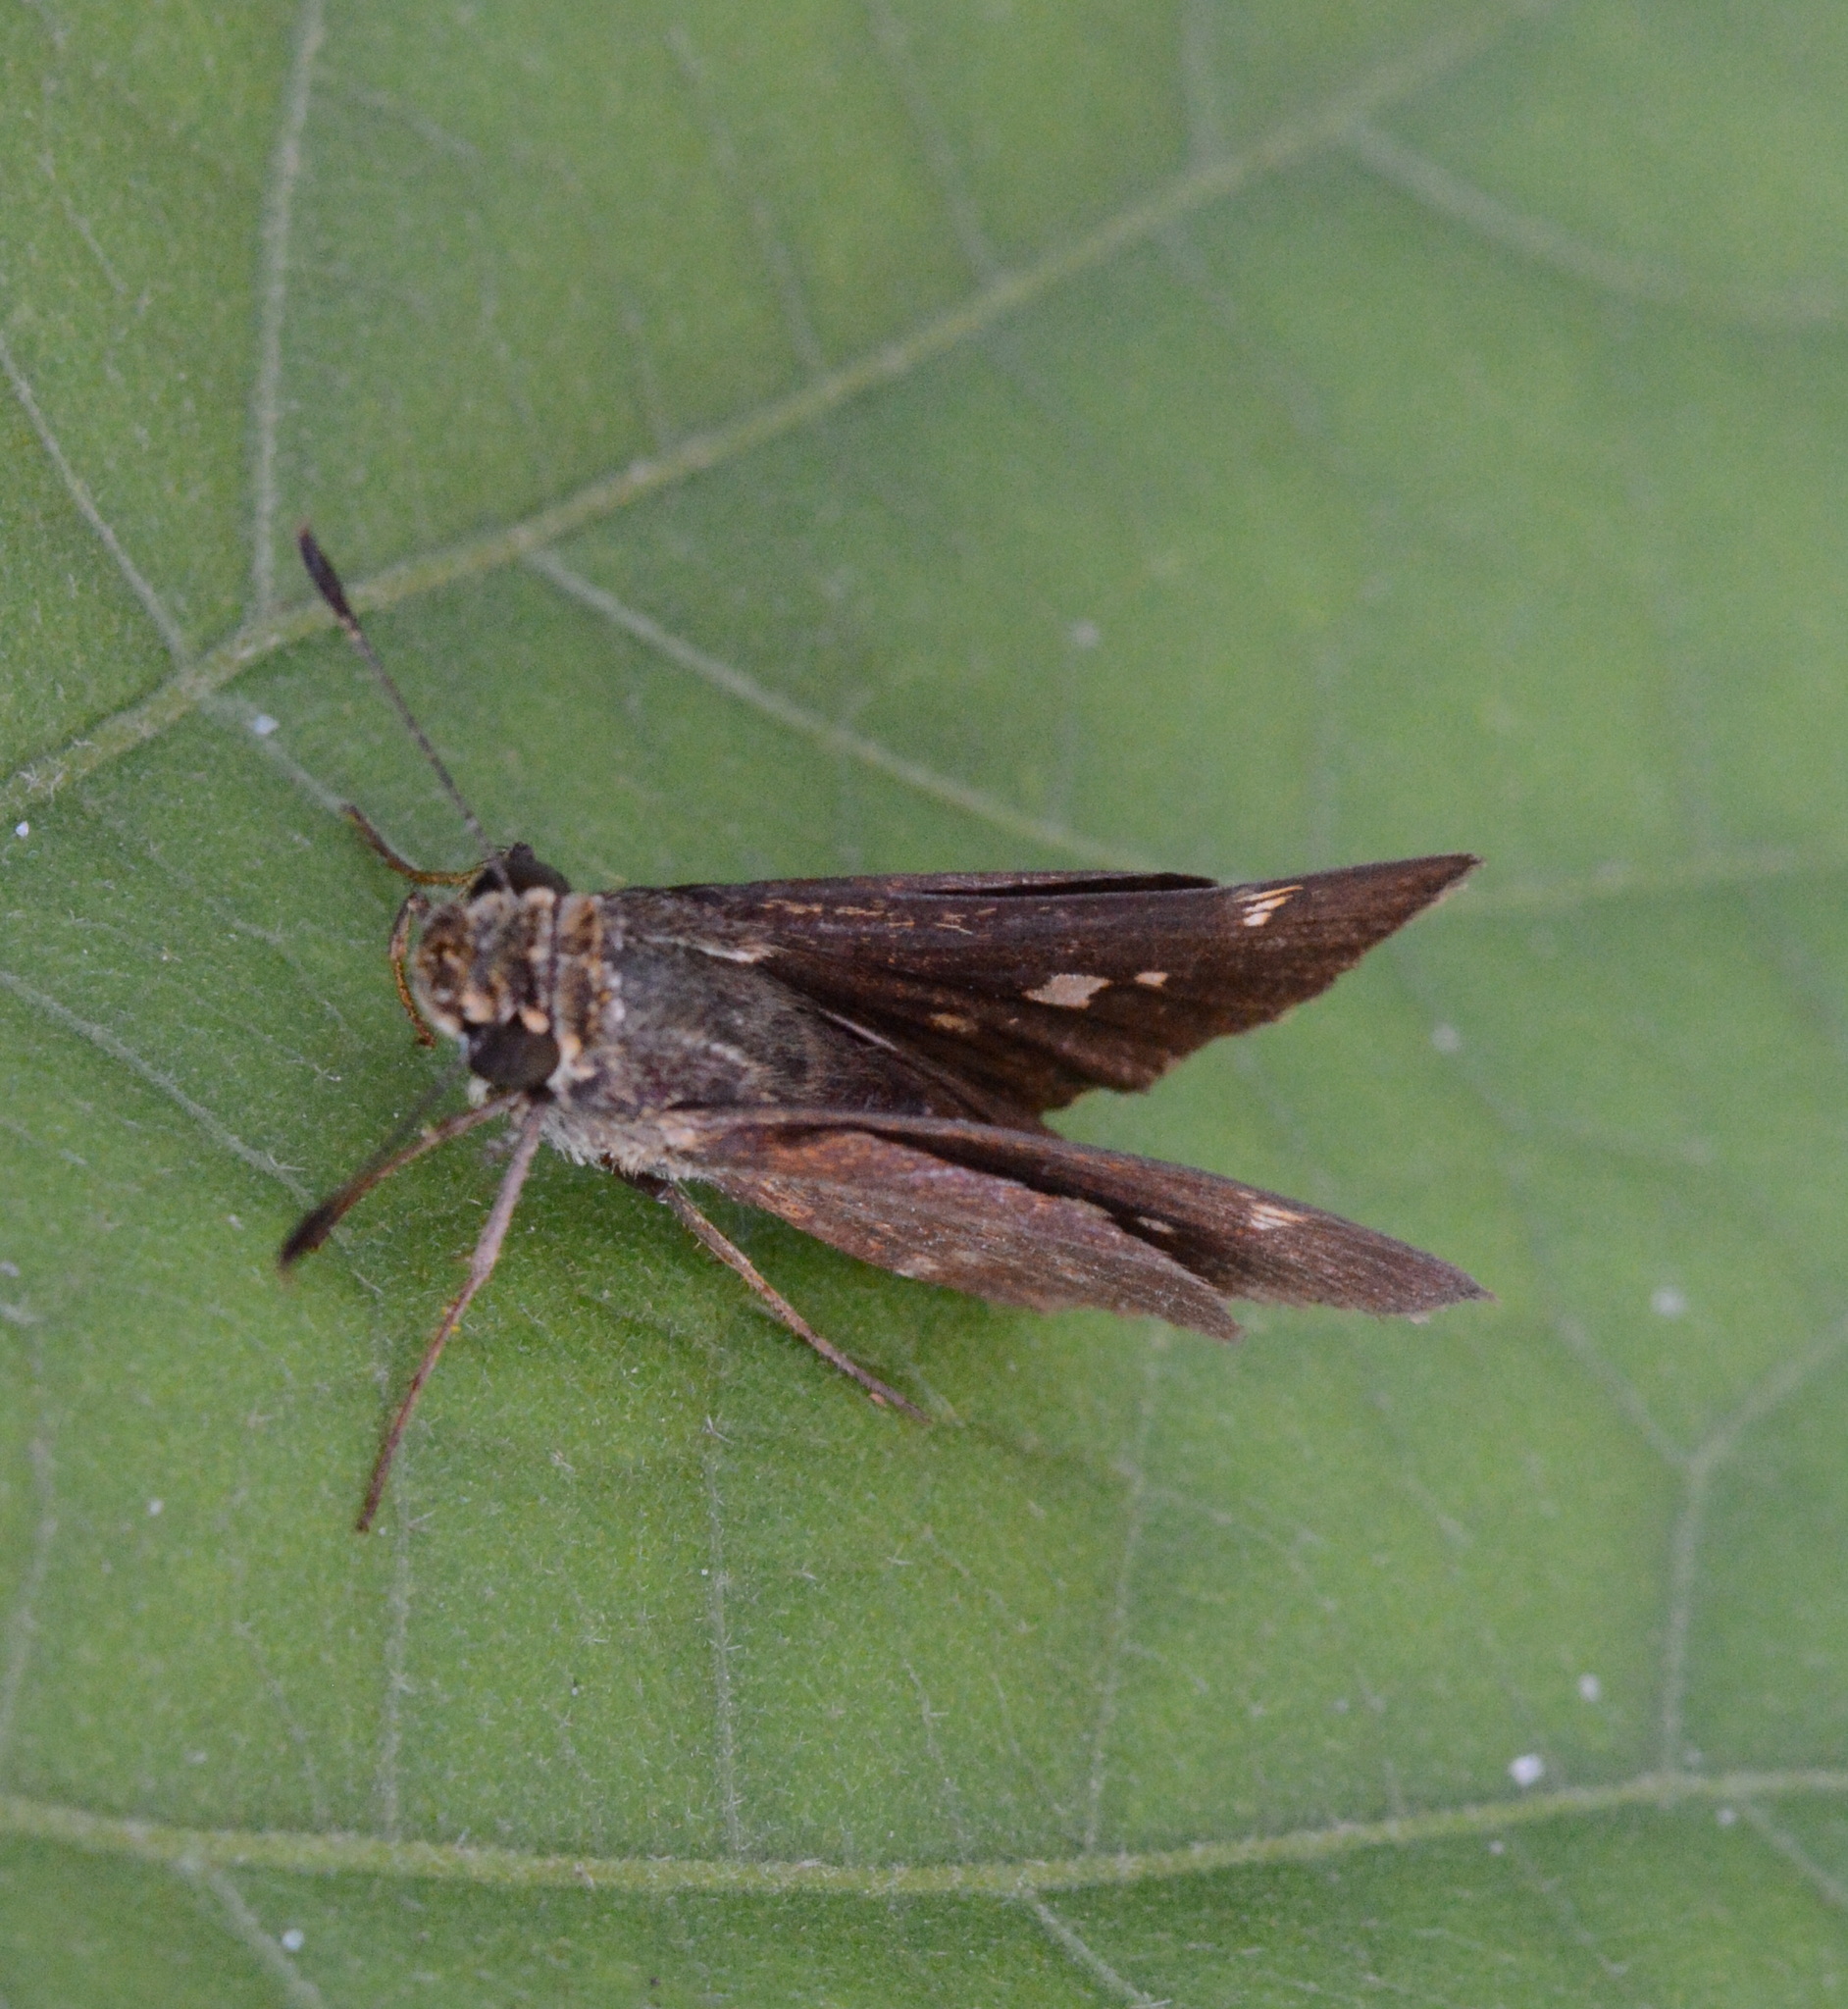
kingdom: Animalia
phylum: Arthropoda
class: Insecta
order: Lepidoptera
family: Hesperiidae
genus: Vernia
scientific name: Vernia verna
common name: Little glassywing
